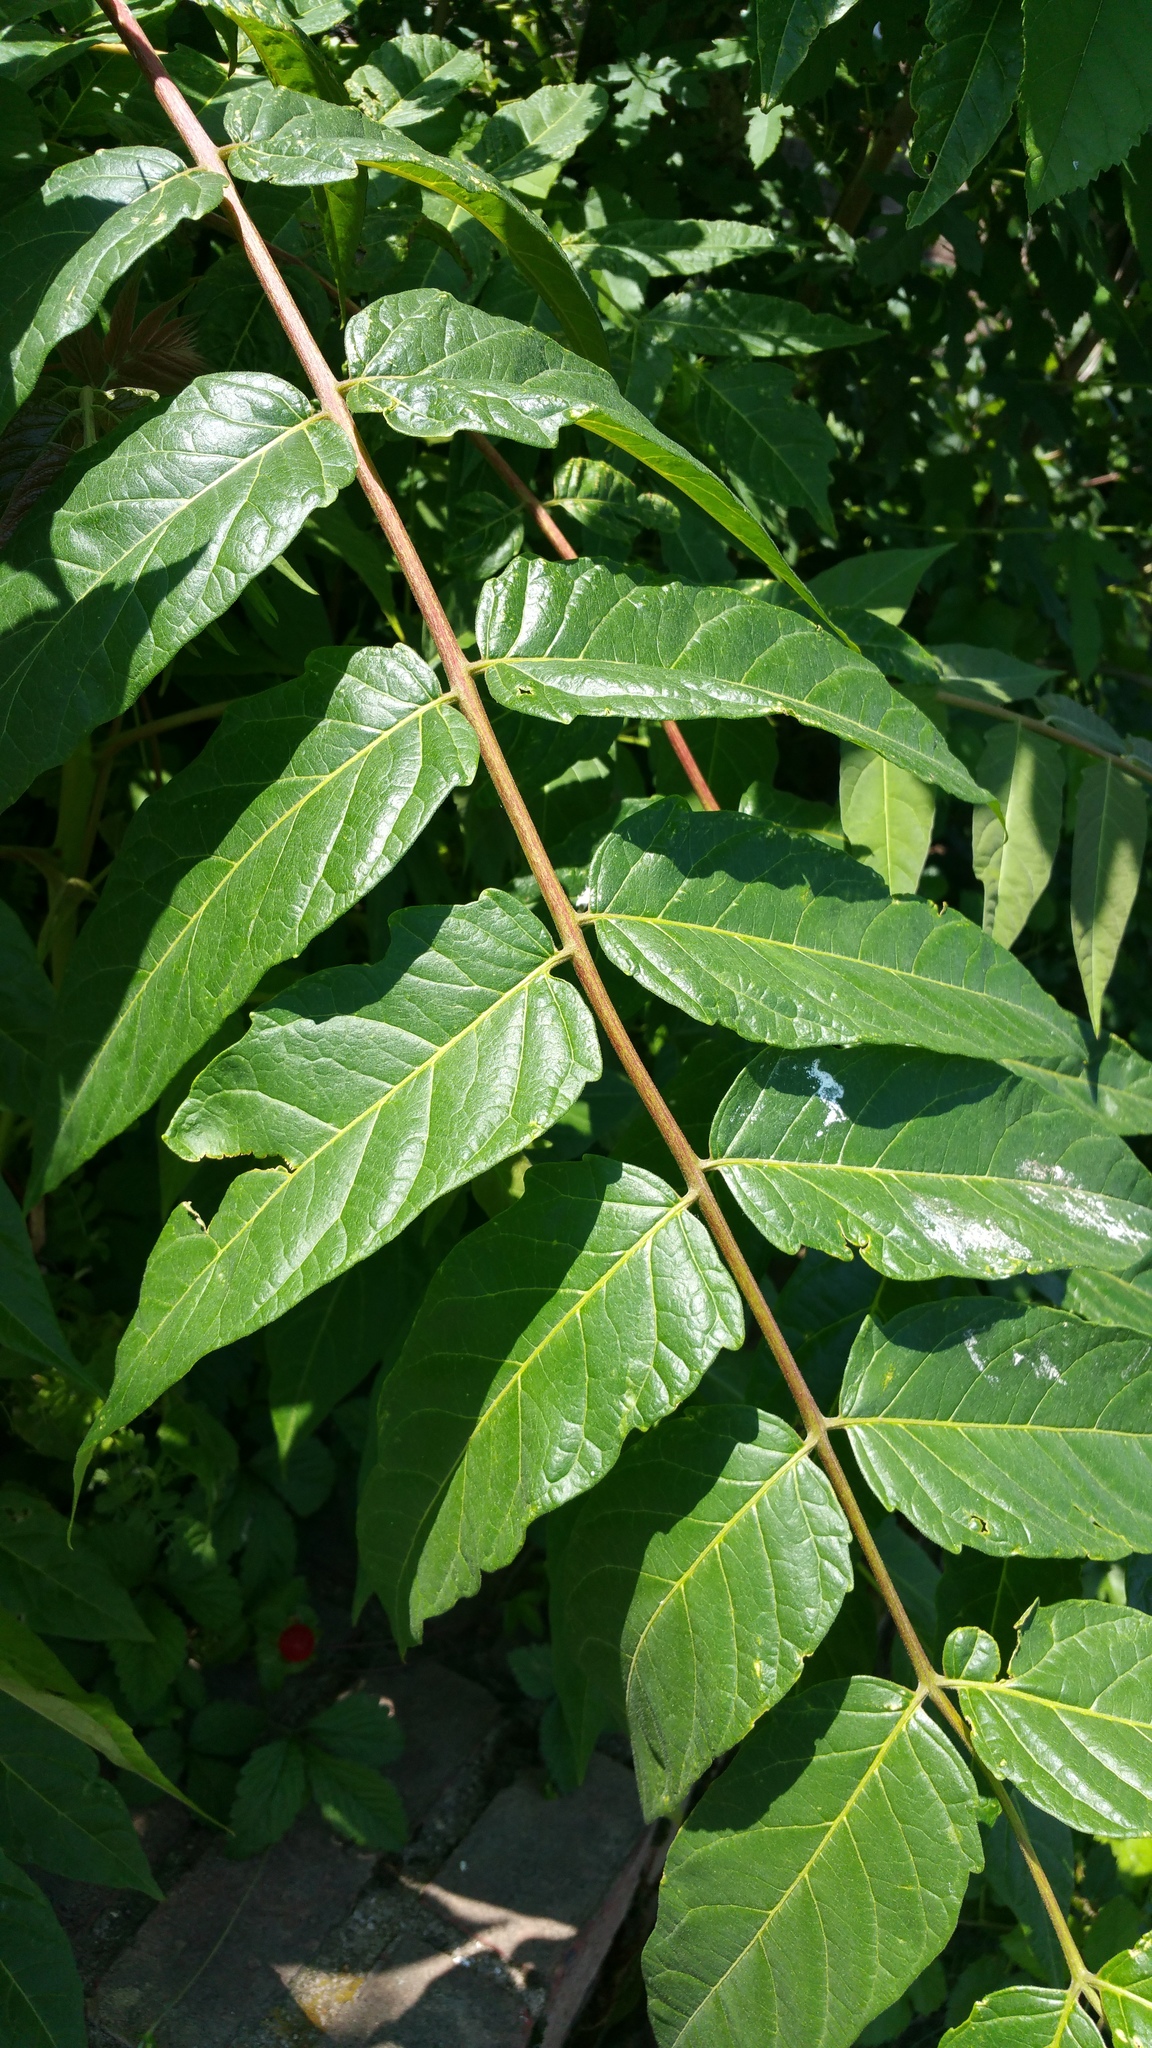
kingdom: Plantae
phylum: Tracheophyta
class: Magnoliopsida
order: Sapindales
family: Simaroubaceae
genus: Ailanthus
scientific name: Ailanthus altissima
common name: Tree-of-heaven
